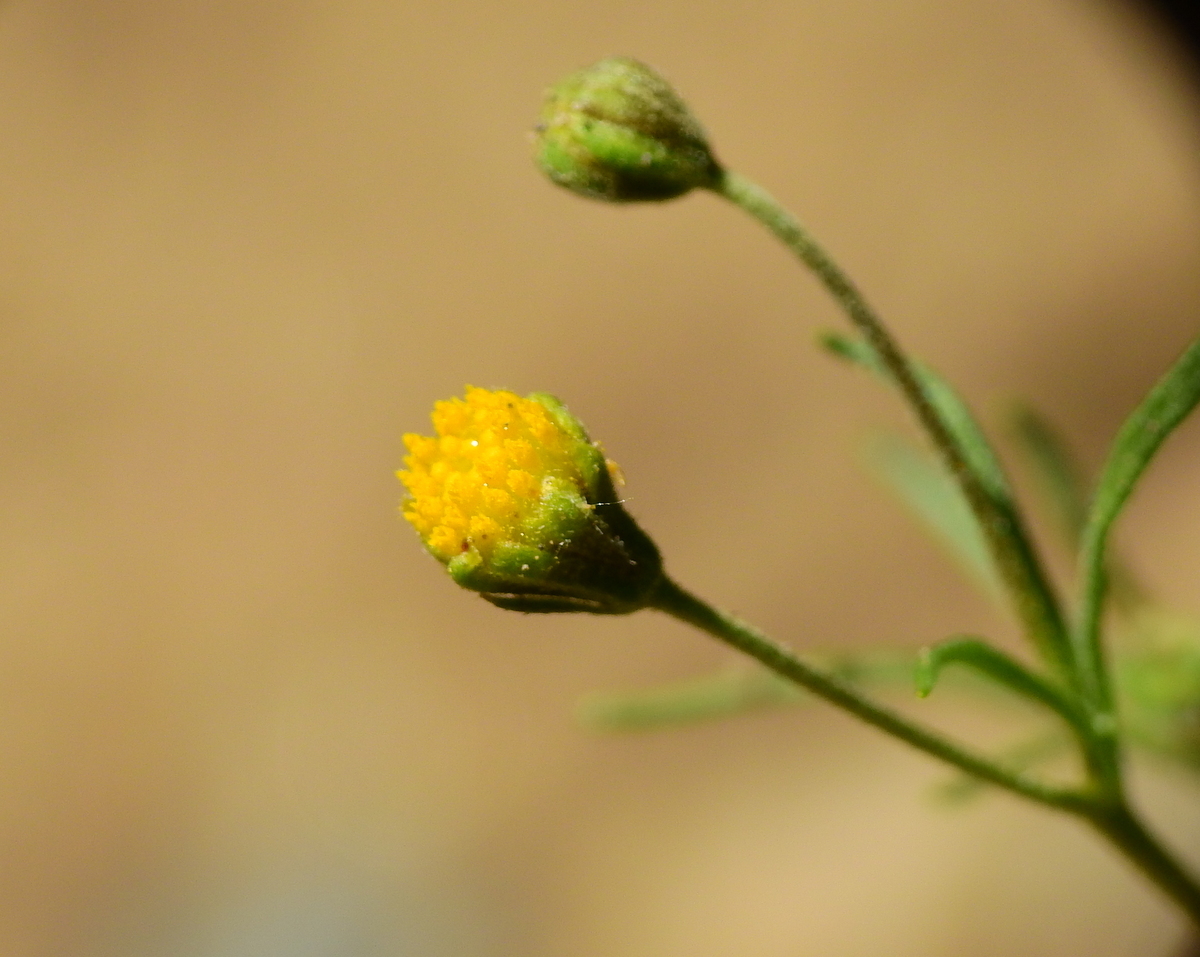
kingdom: Plantae
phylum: Tracheophyta
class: Magnoliopsida
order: Asterales
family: Asteraceae
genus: Picradeniopsis
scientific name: Picradeniopsis multiflora
